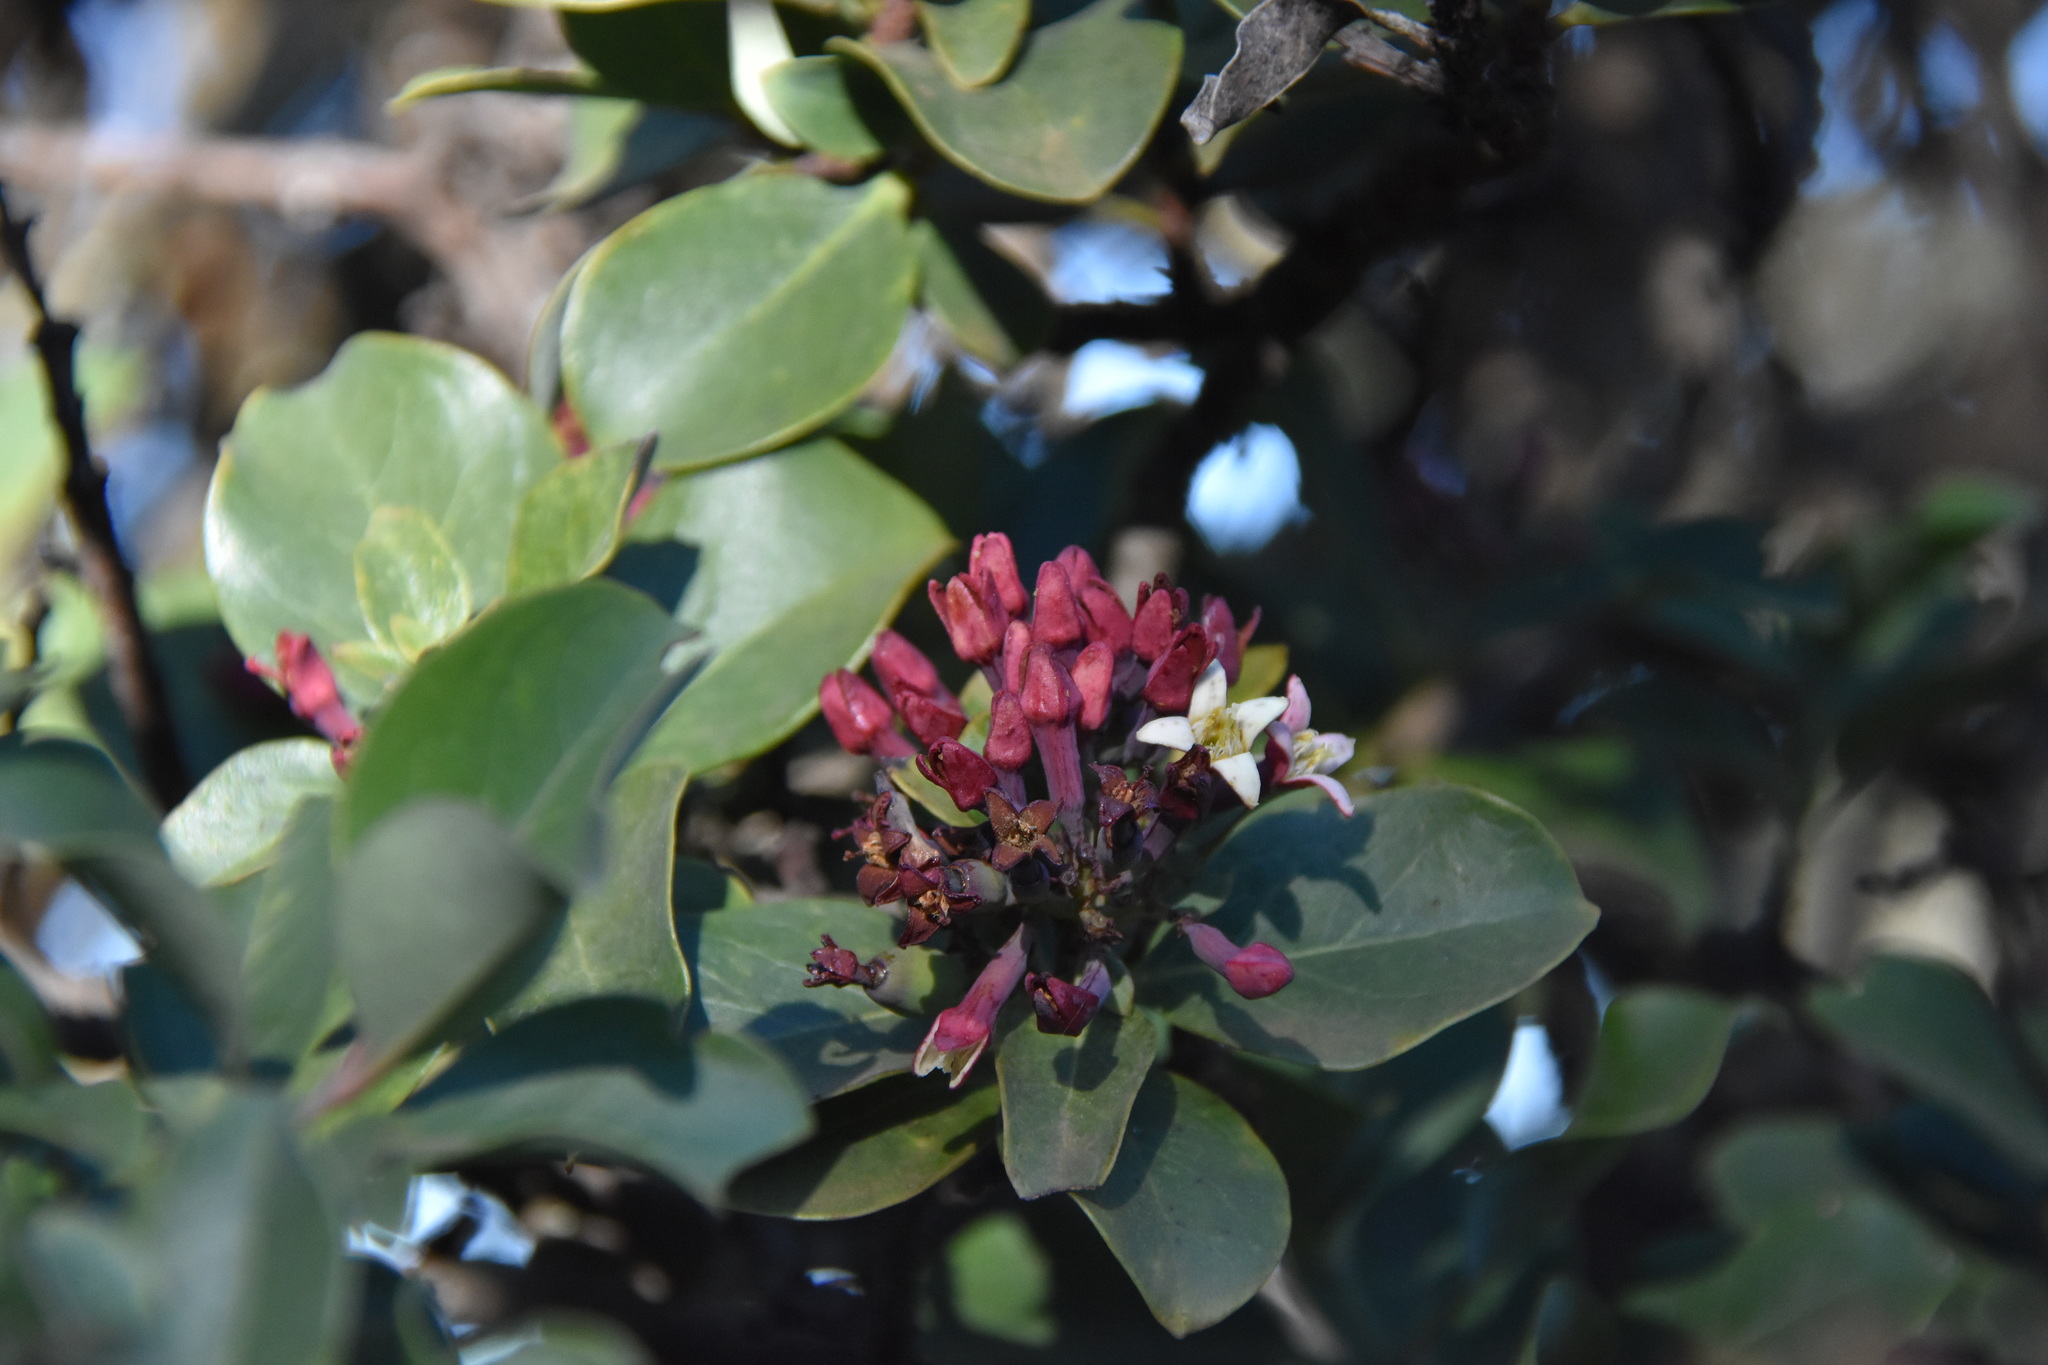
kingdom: Plantae
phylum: Tracheophyta
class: Magnoliopsida
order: Santalales
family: Santalaceae
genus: Santalum
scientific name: Santalum haleakalae
